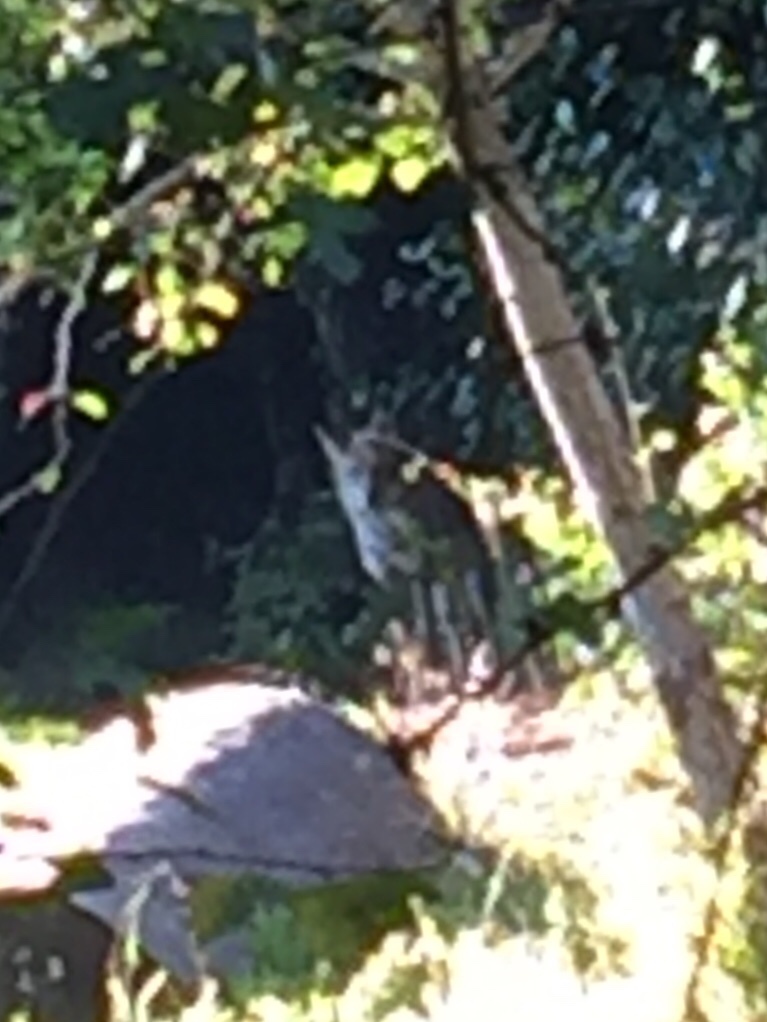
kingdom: Animalia
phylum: Chordata
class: Mammalia
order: Carnivora
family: Canidae
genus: Canis
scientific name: Canis latrans
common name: Coyote
